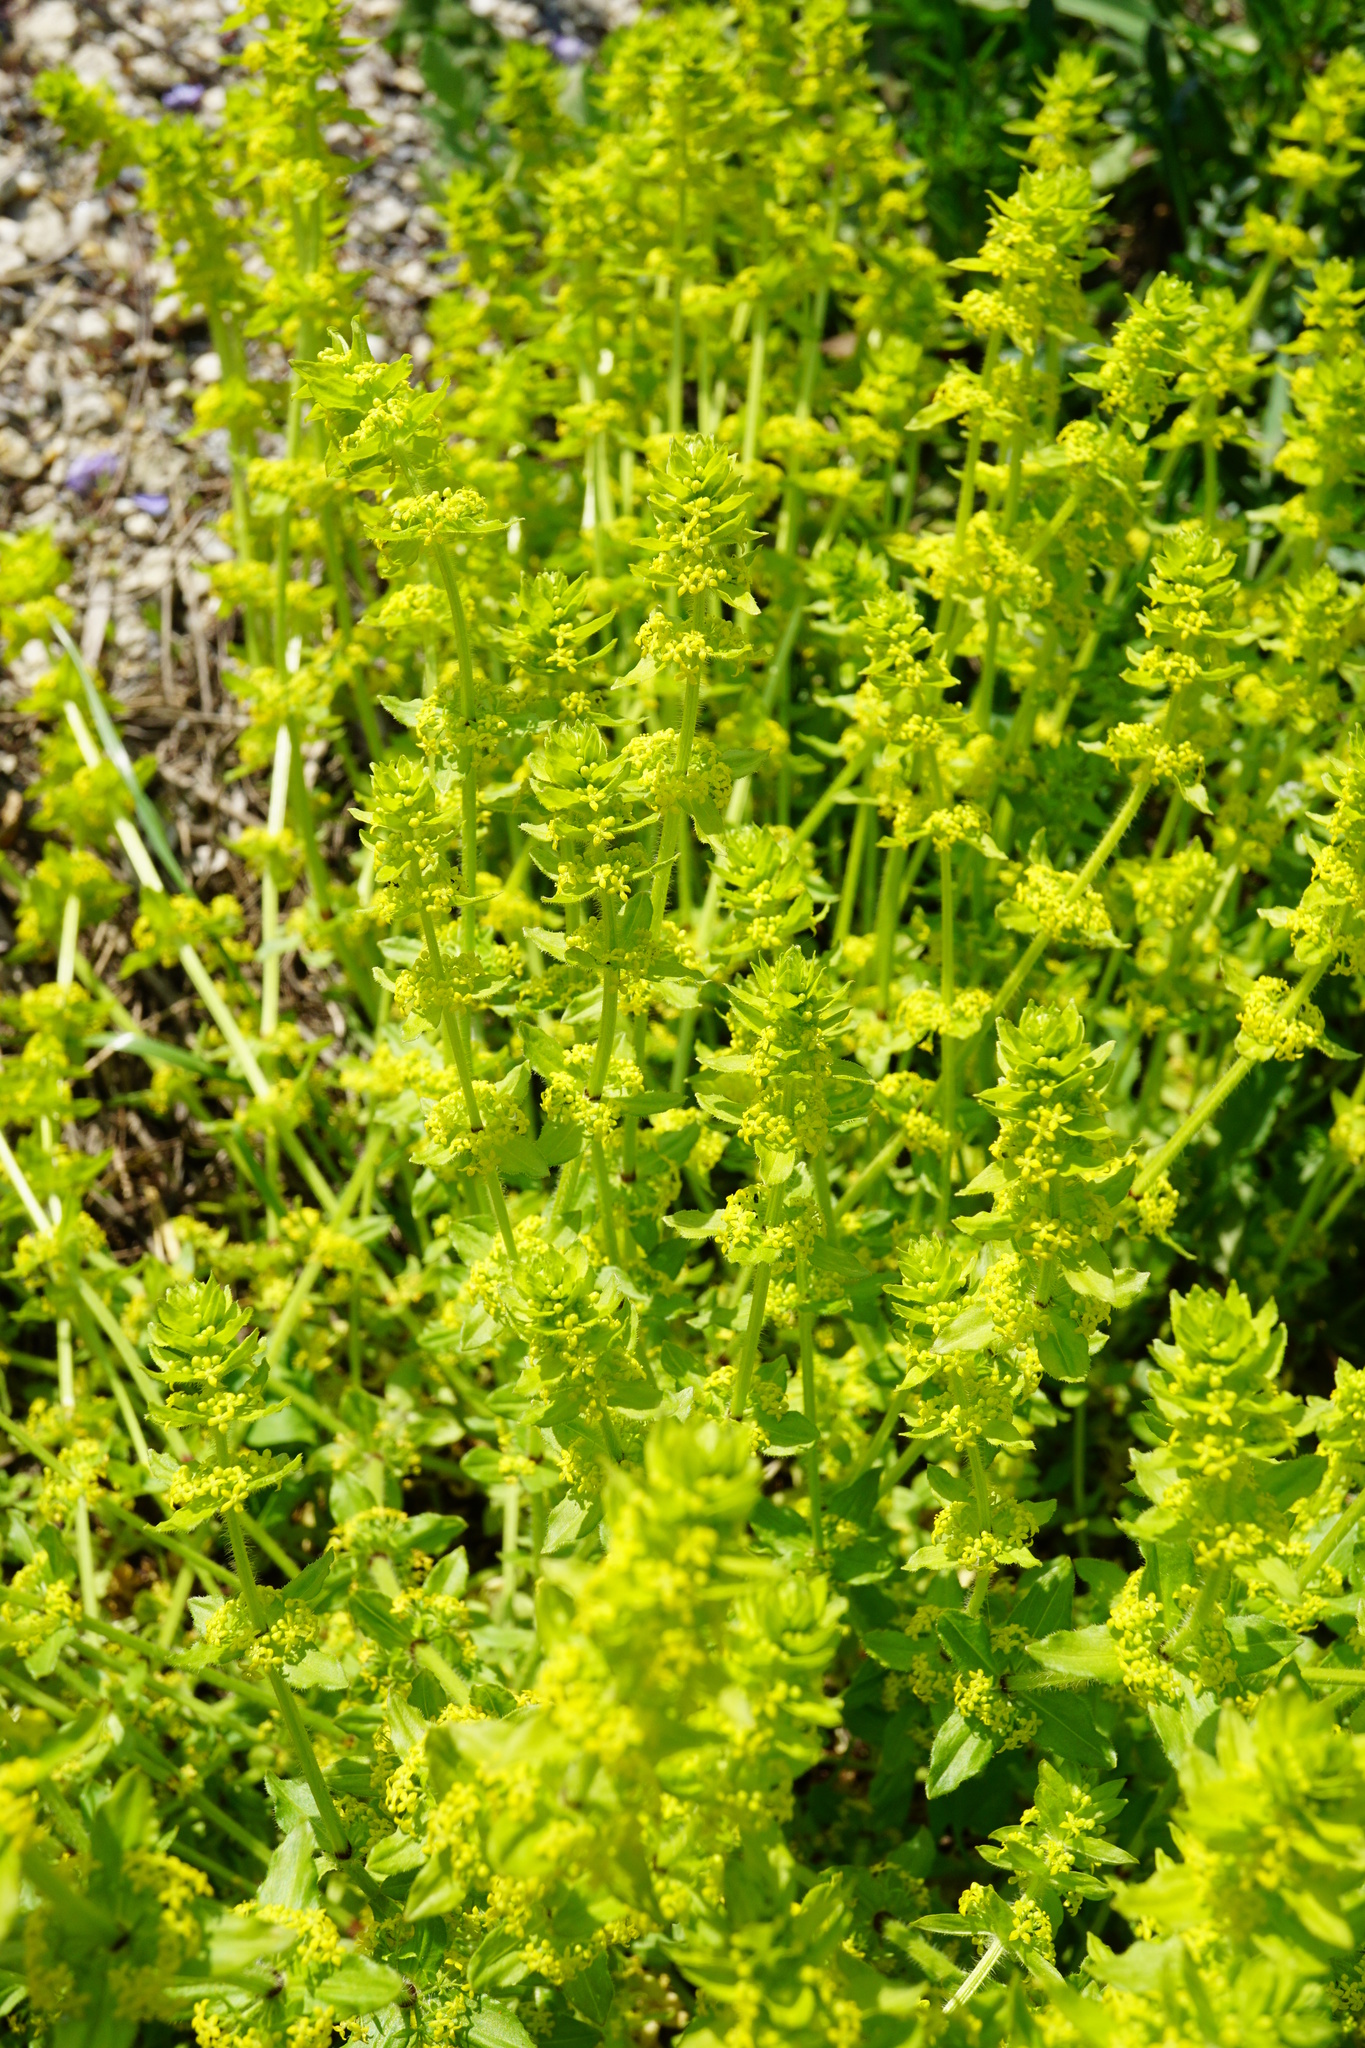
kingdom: Plantae
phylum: Tracheophyta
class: Magnoliopsida
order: Gentianales
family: Rubiaceae
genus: Cruciata
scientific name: Cruciata laevipes
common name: Crosswort
